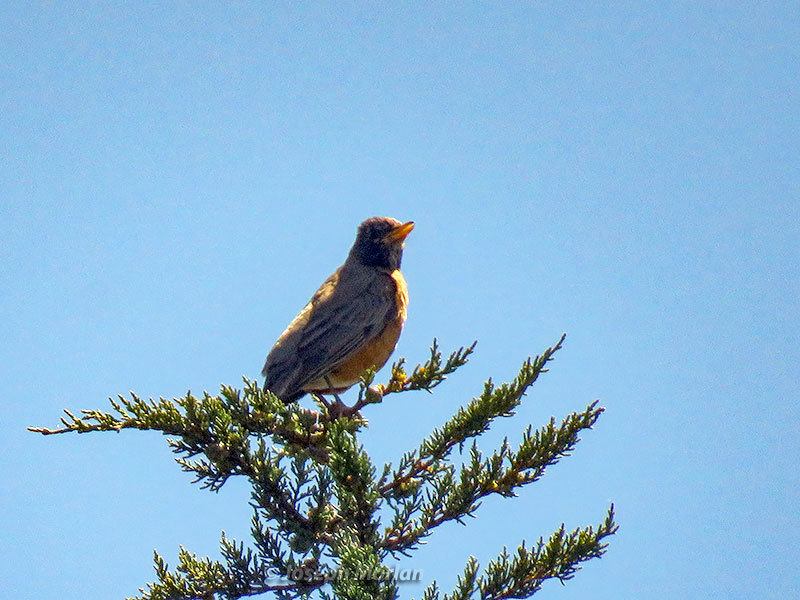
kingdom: Animalia
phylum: Chordata
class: Aves
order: Passeriformes
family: Turdidae
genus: Turdus
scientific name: Turdus migratorius
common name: American robin
